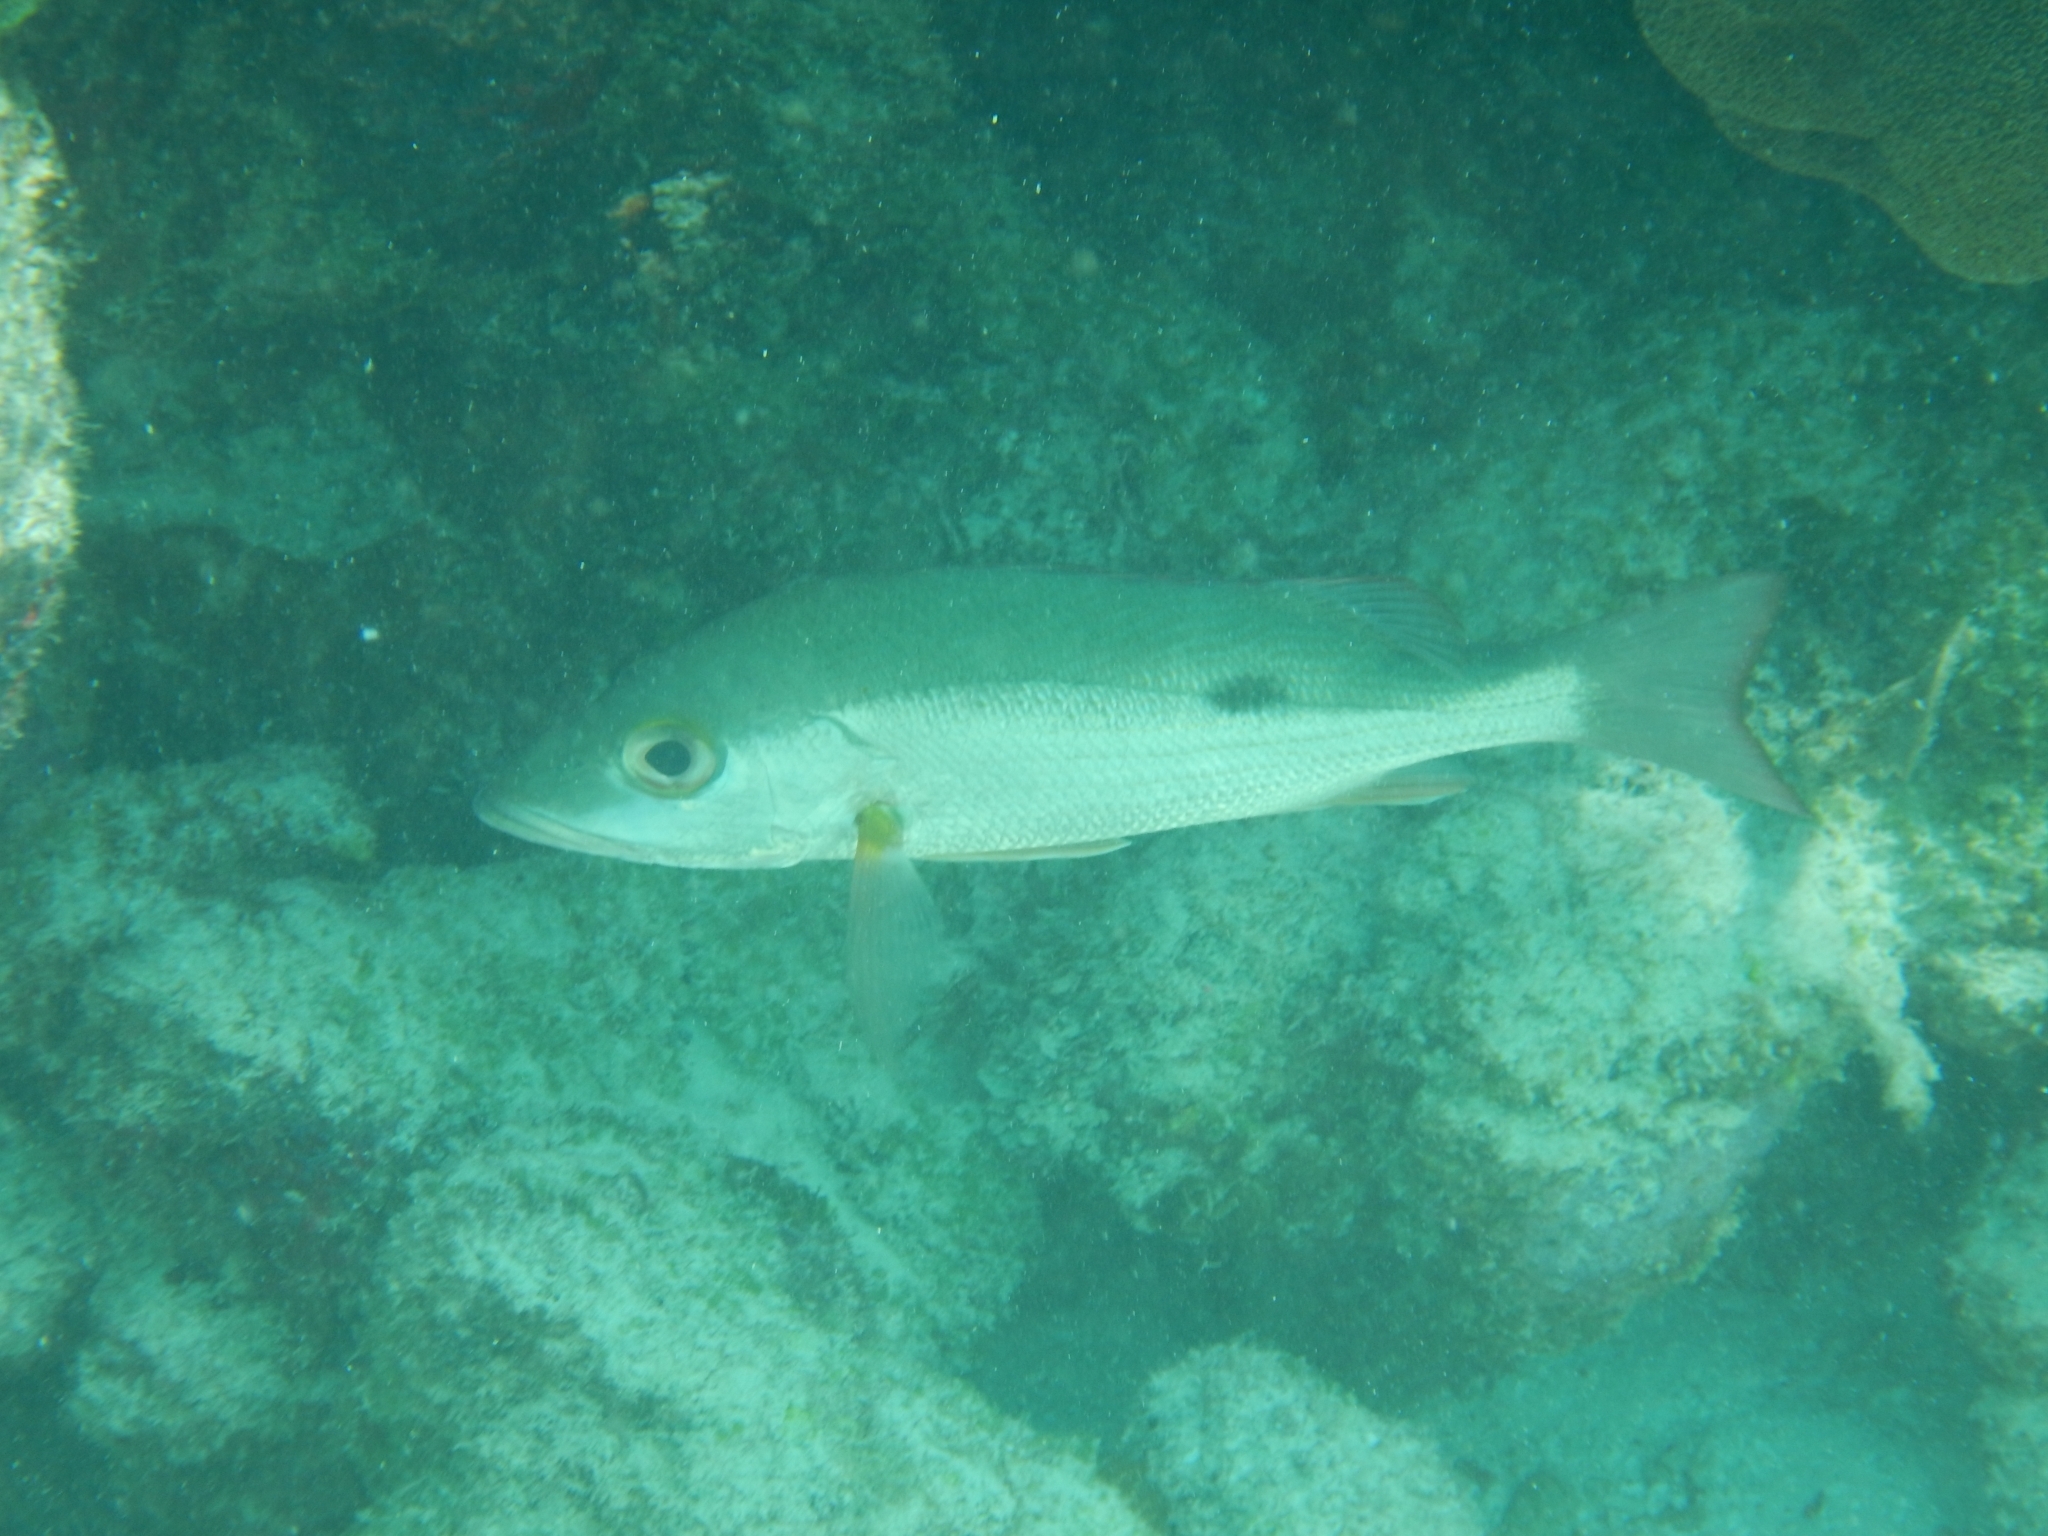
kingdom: Animalia
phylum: Chordata
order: Perciformes
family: Lutjanidae
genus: Lutjanus
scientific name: Lutjanus mahogoni
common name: Spot snapper
